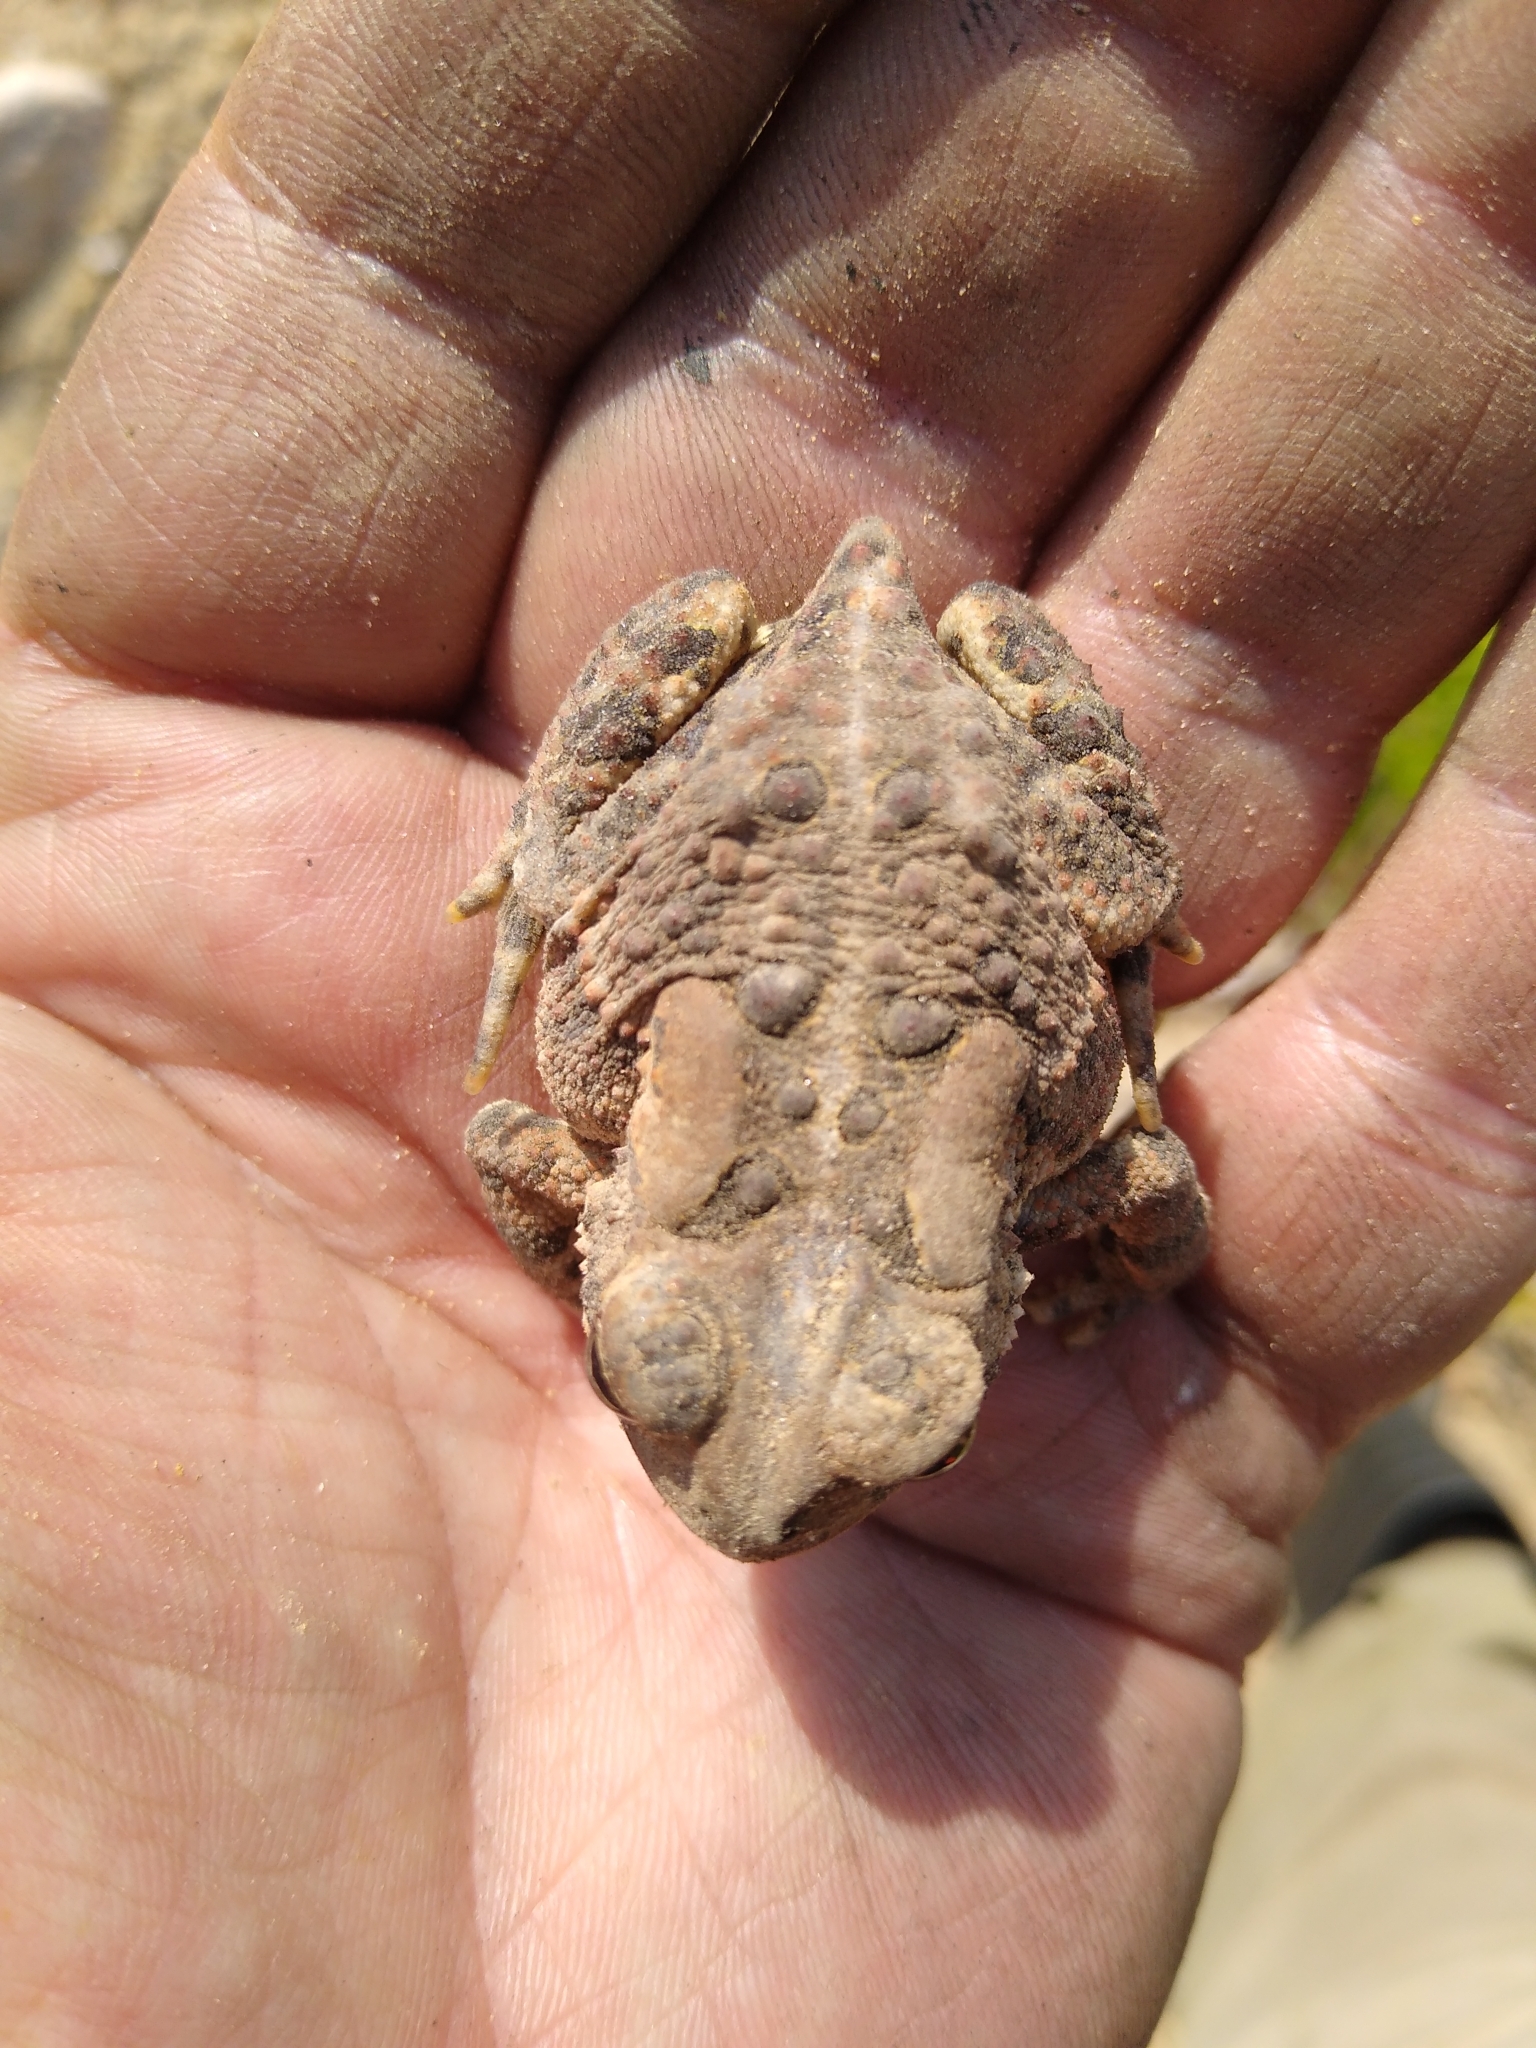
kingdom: Animalia
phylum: Chordata
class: Amphibia
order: Anura
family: Bufonidae
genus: Anaxyrus
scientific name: Anaxyrus americanus
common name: American toad
